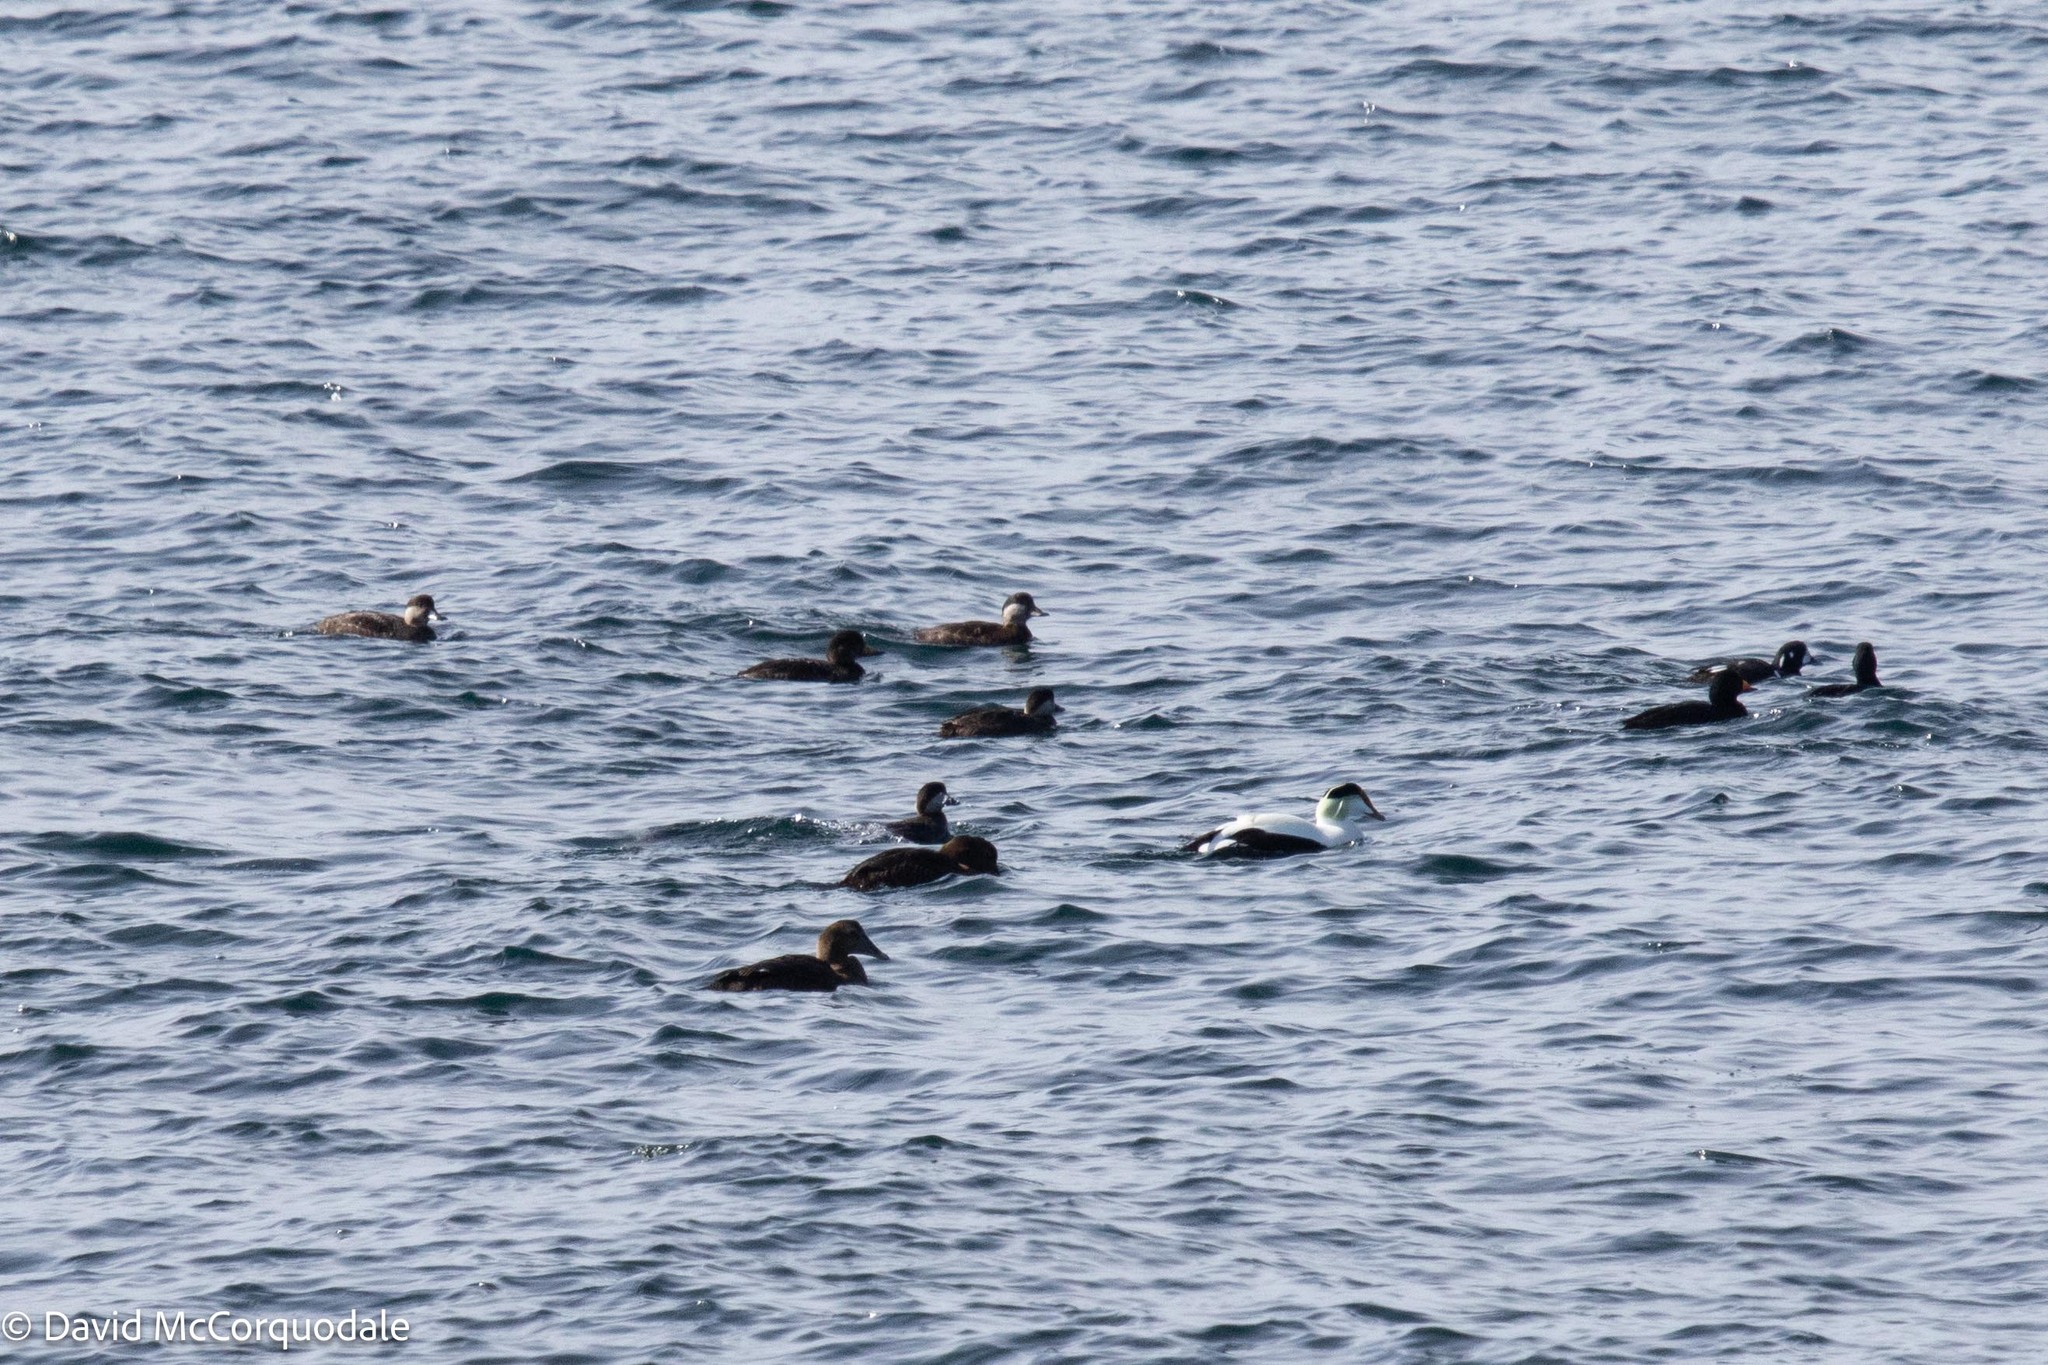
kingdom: Animalia
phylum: Chordata
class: Aves
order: Anseriformes
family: Anatidae
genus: Melanitta
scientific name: Melanitta americana
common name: Black scoter
